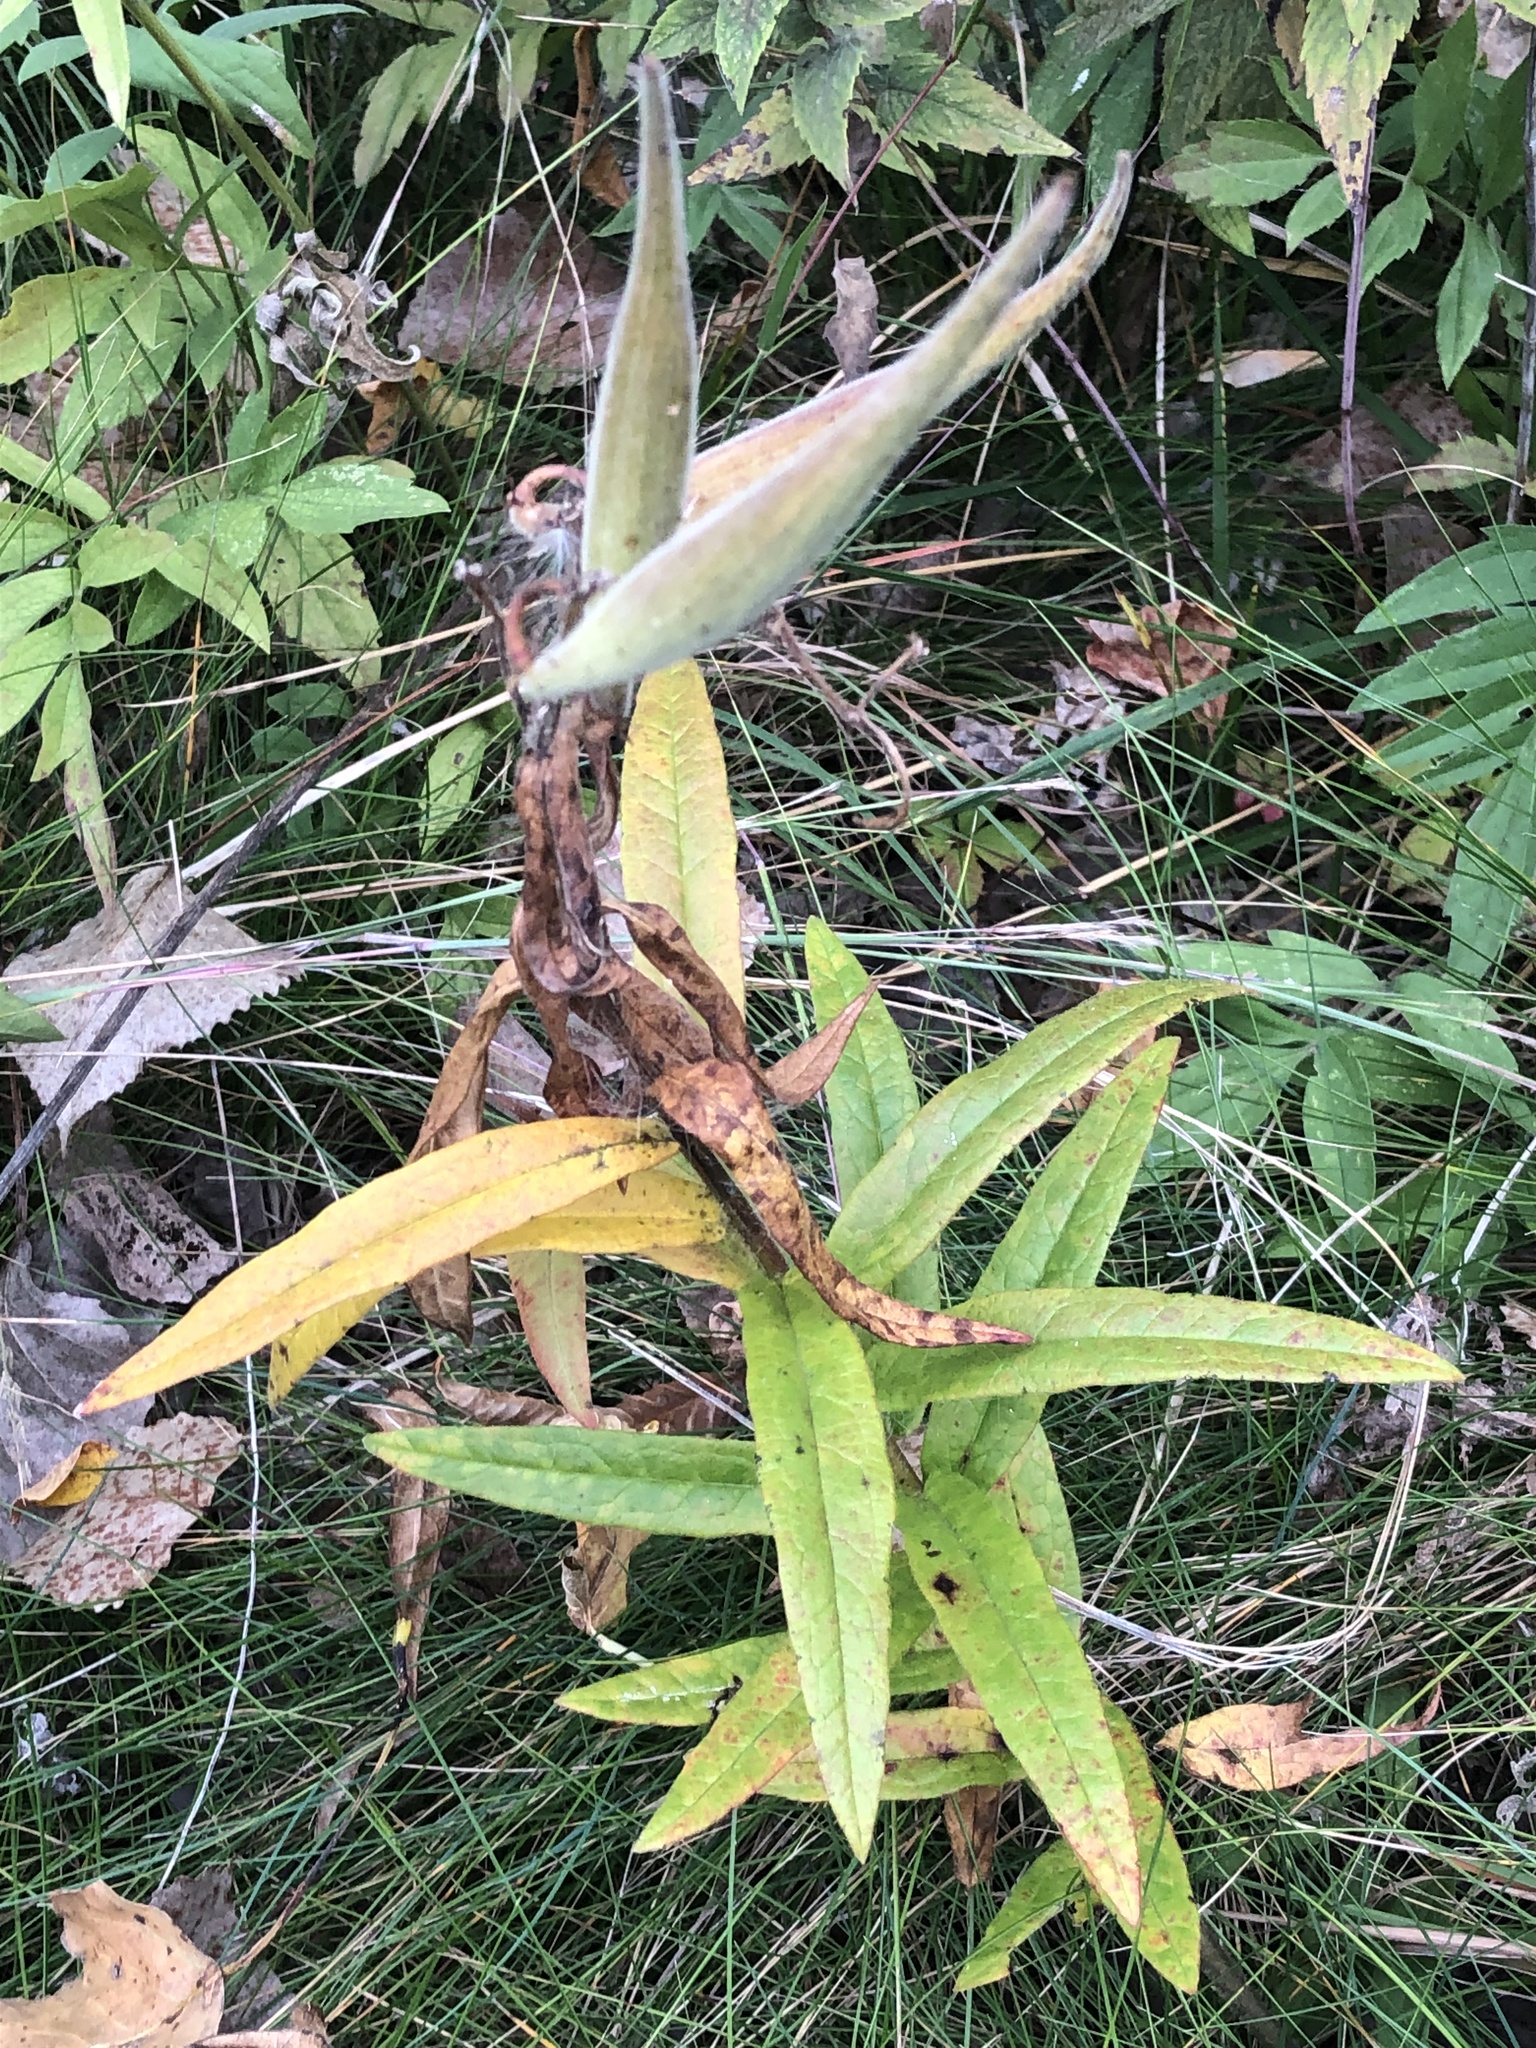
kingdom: Plantae
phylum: Tracheophyta
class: Magnoliopsida
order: Gentianales
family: Apocynaceae
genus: Asclepias
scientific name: Asclepias tuberosa
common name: Butterfly milkweed
